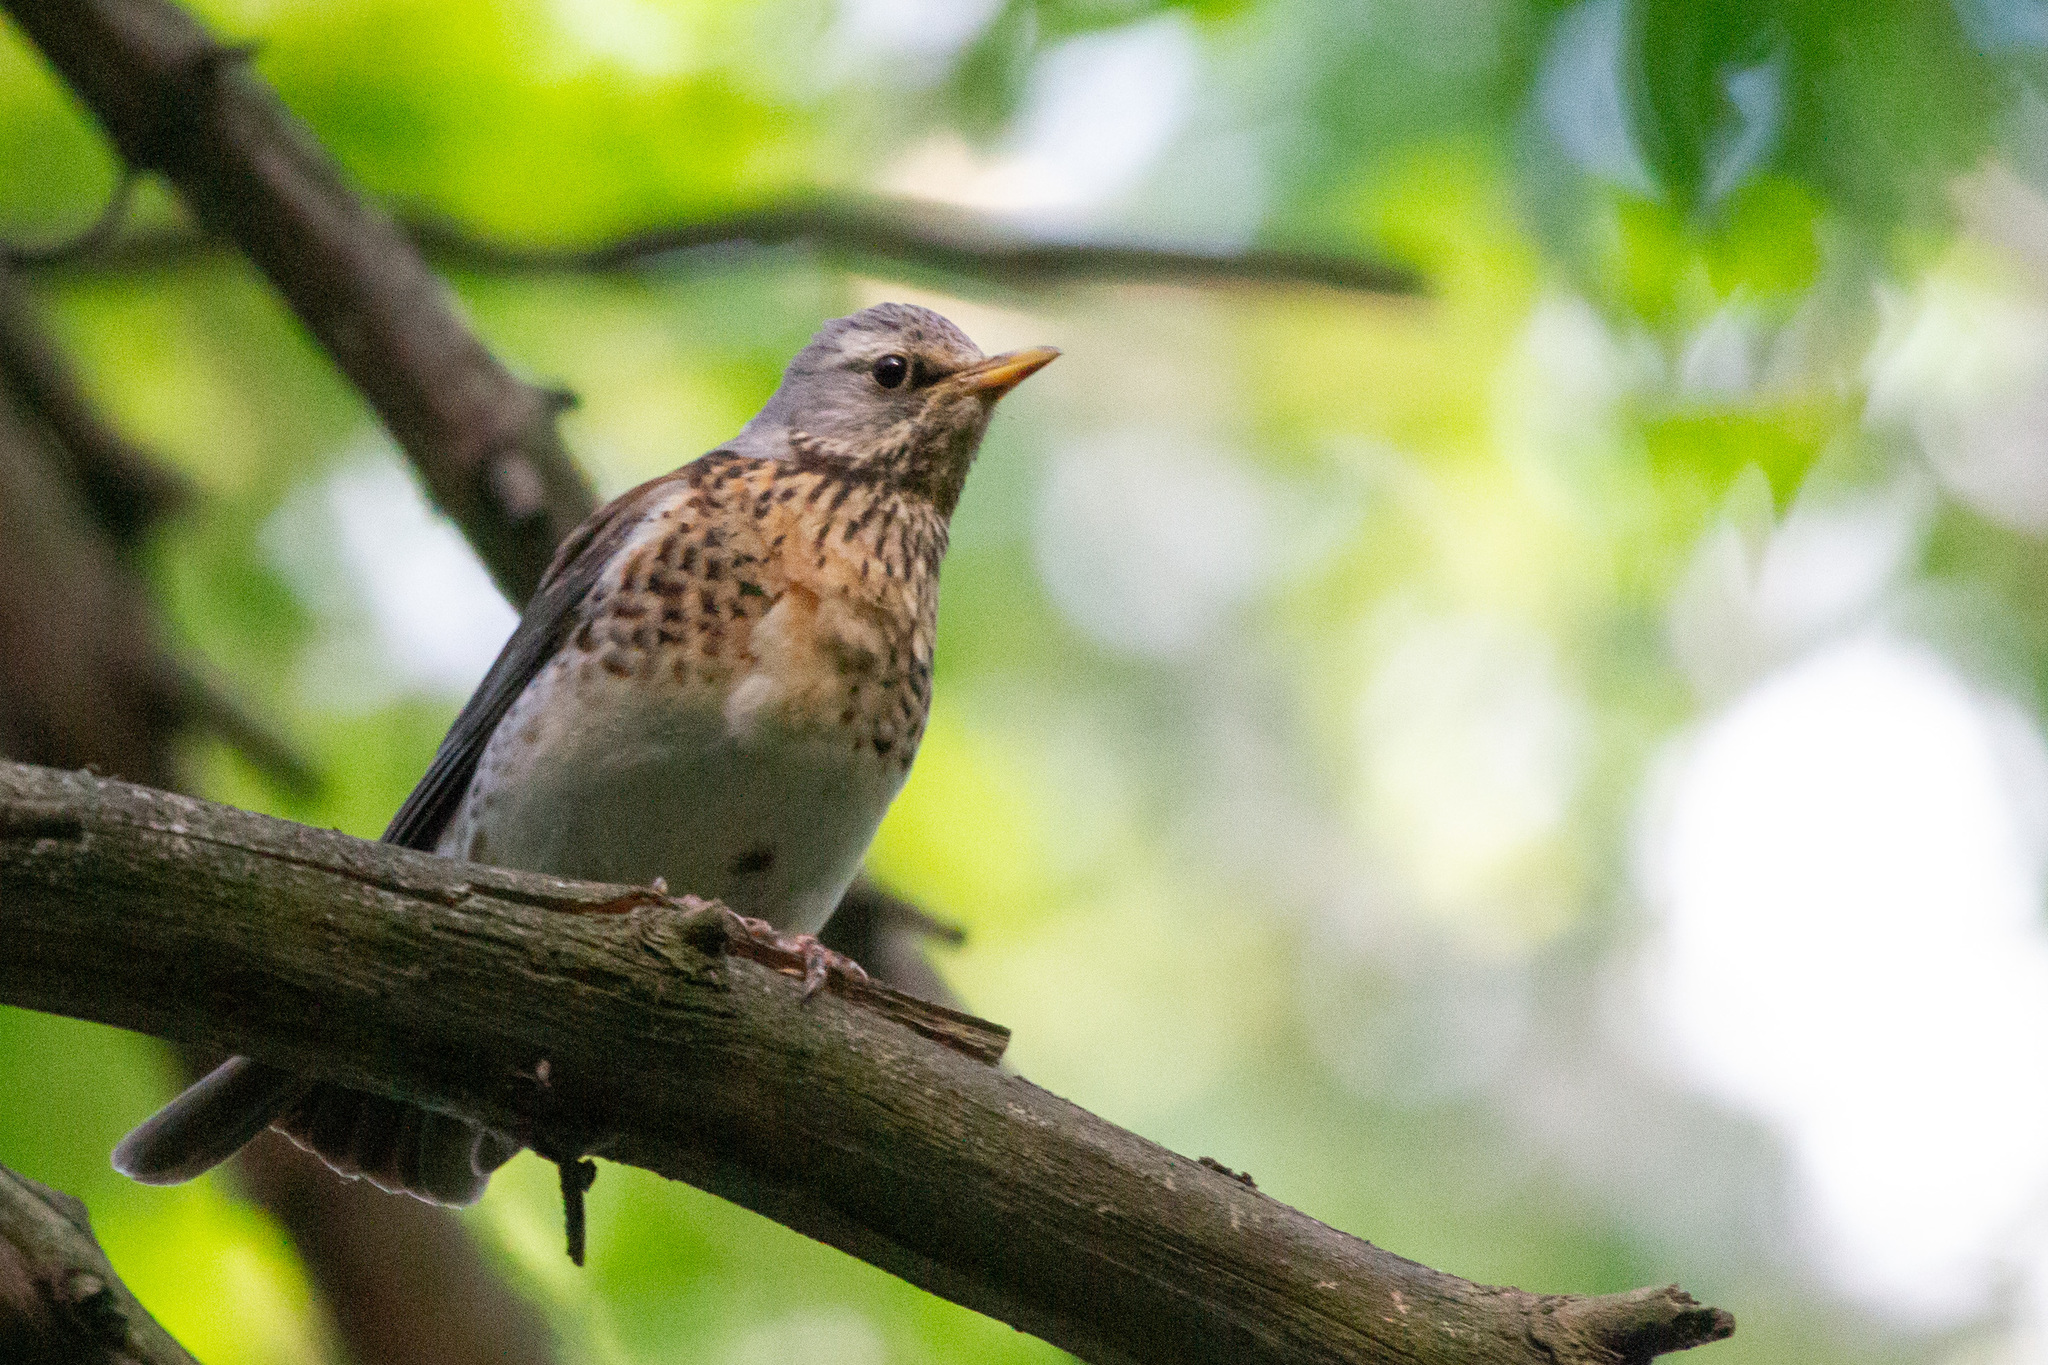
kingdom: Animalia
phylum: Chordata
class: Aves
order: Passeriformes
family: Turdidae
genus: Turdus
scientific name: Turdus pilaris
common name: Fieldfare
